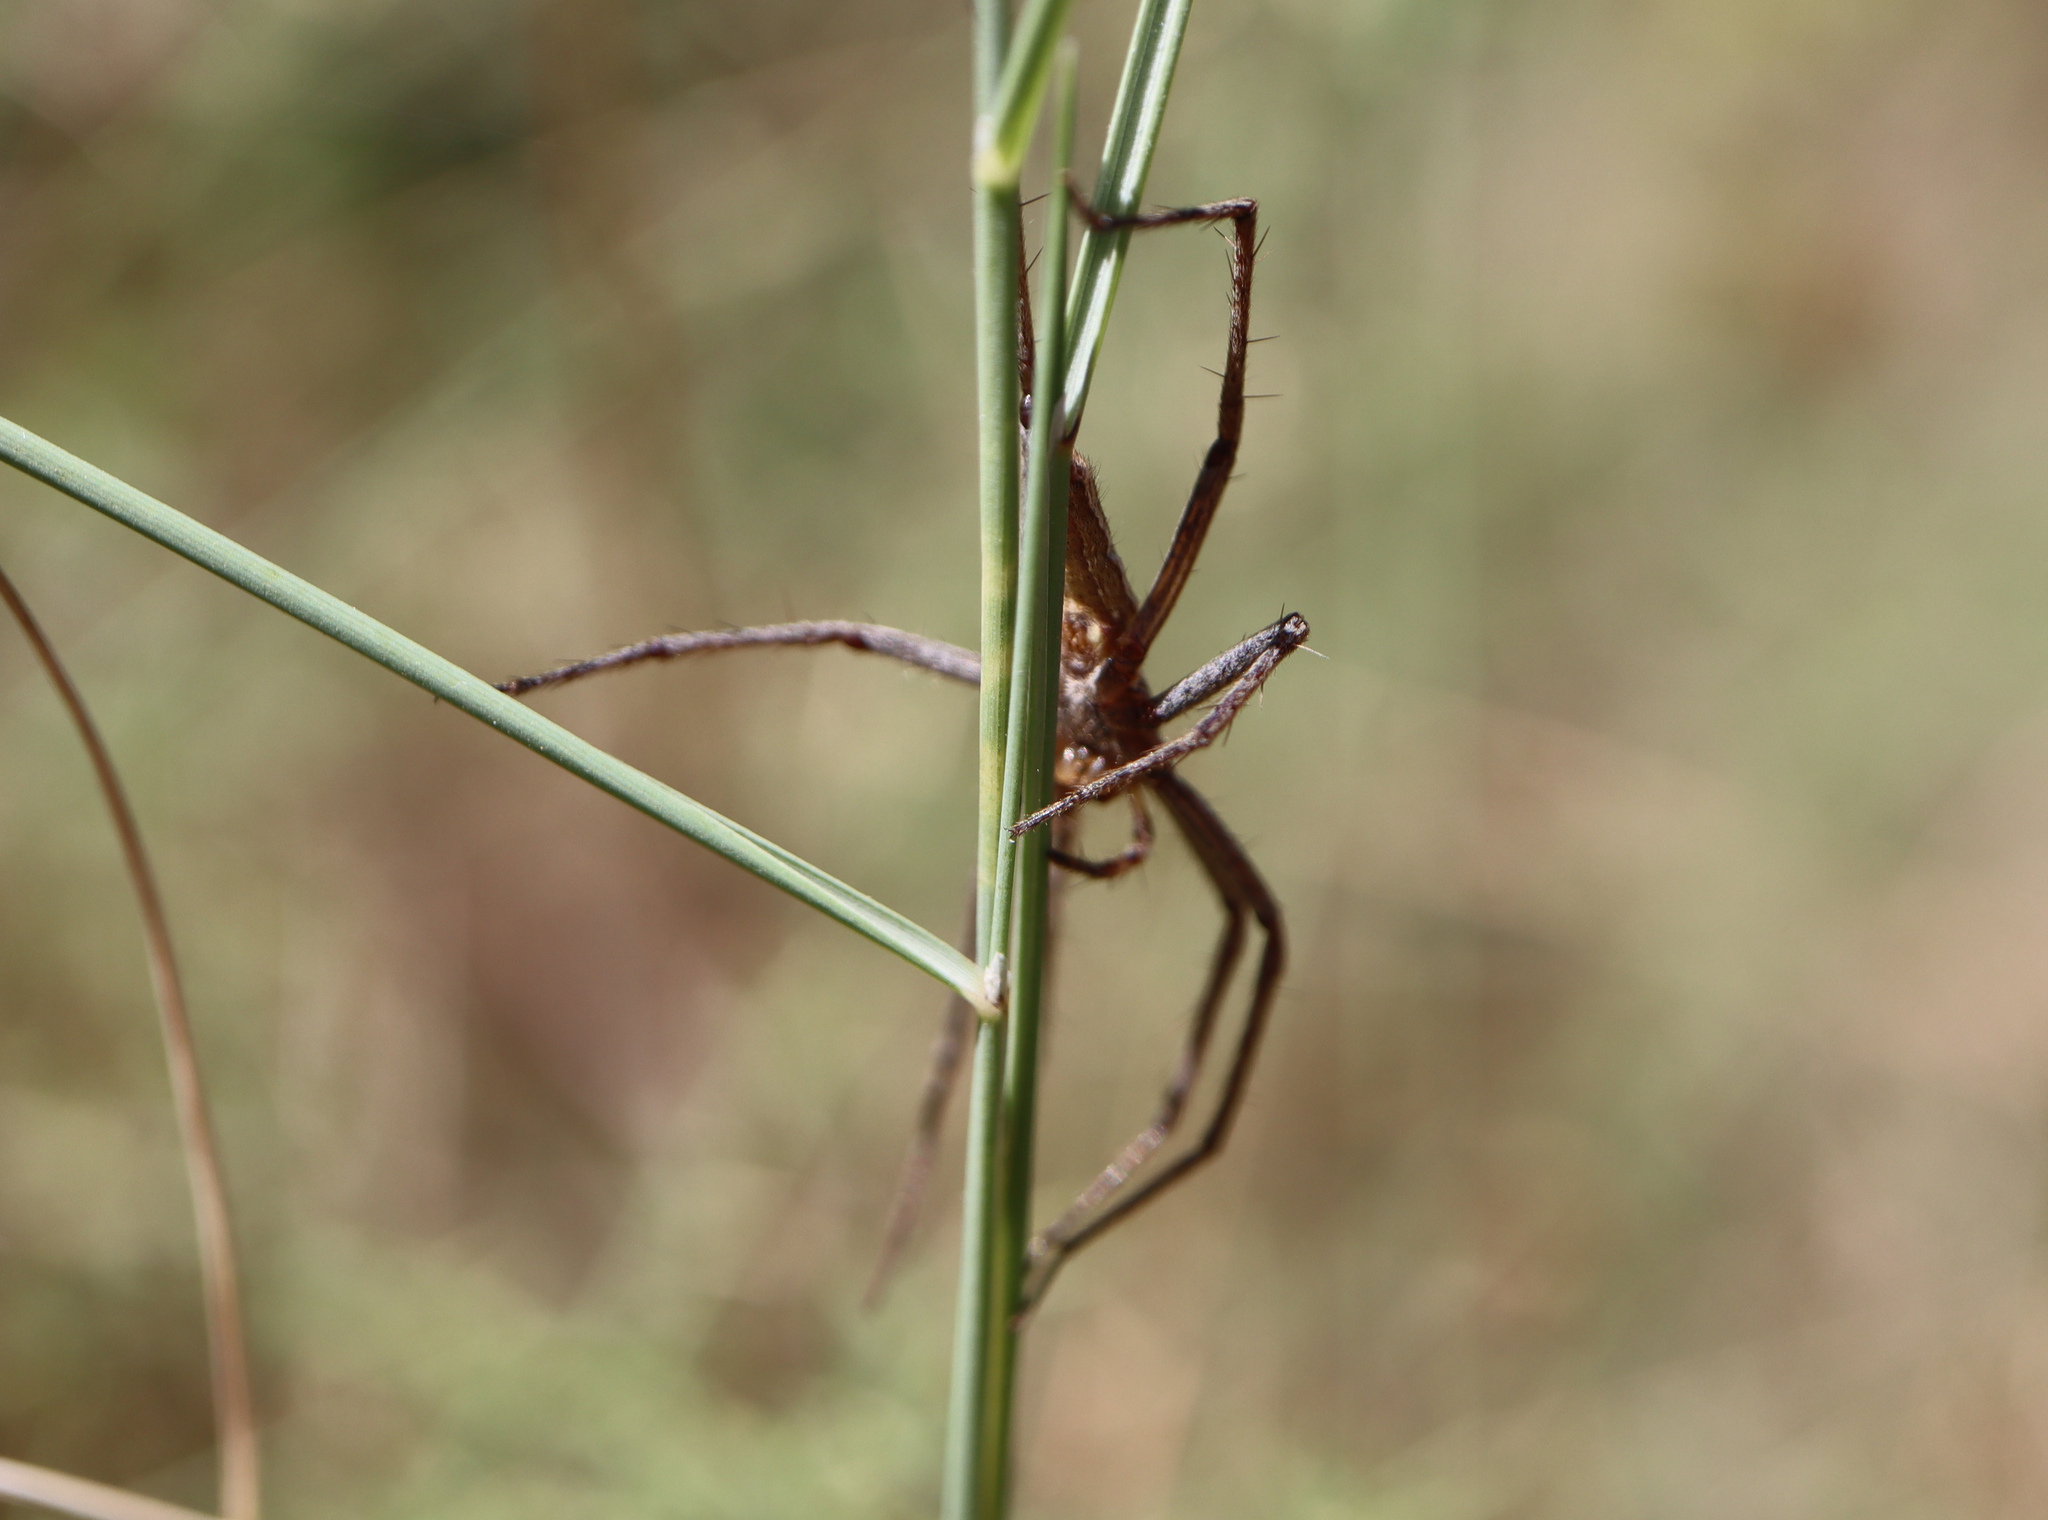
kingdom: Animalia
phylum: Arthropoda
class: Arachnida
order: Araneae
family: Pisauridae
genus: Pisaura
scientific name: Pisaura mirabilis
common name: Tent spider
